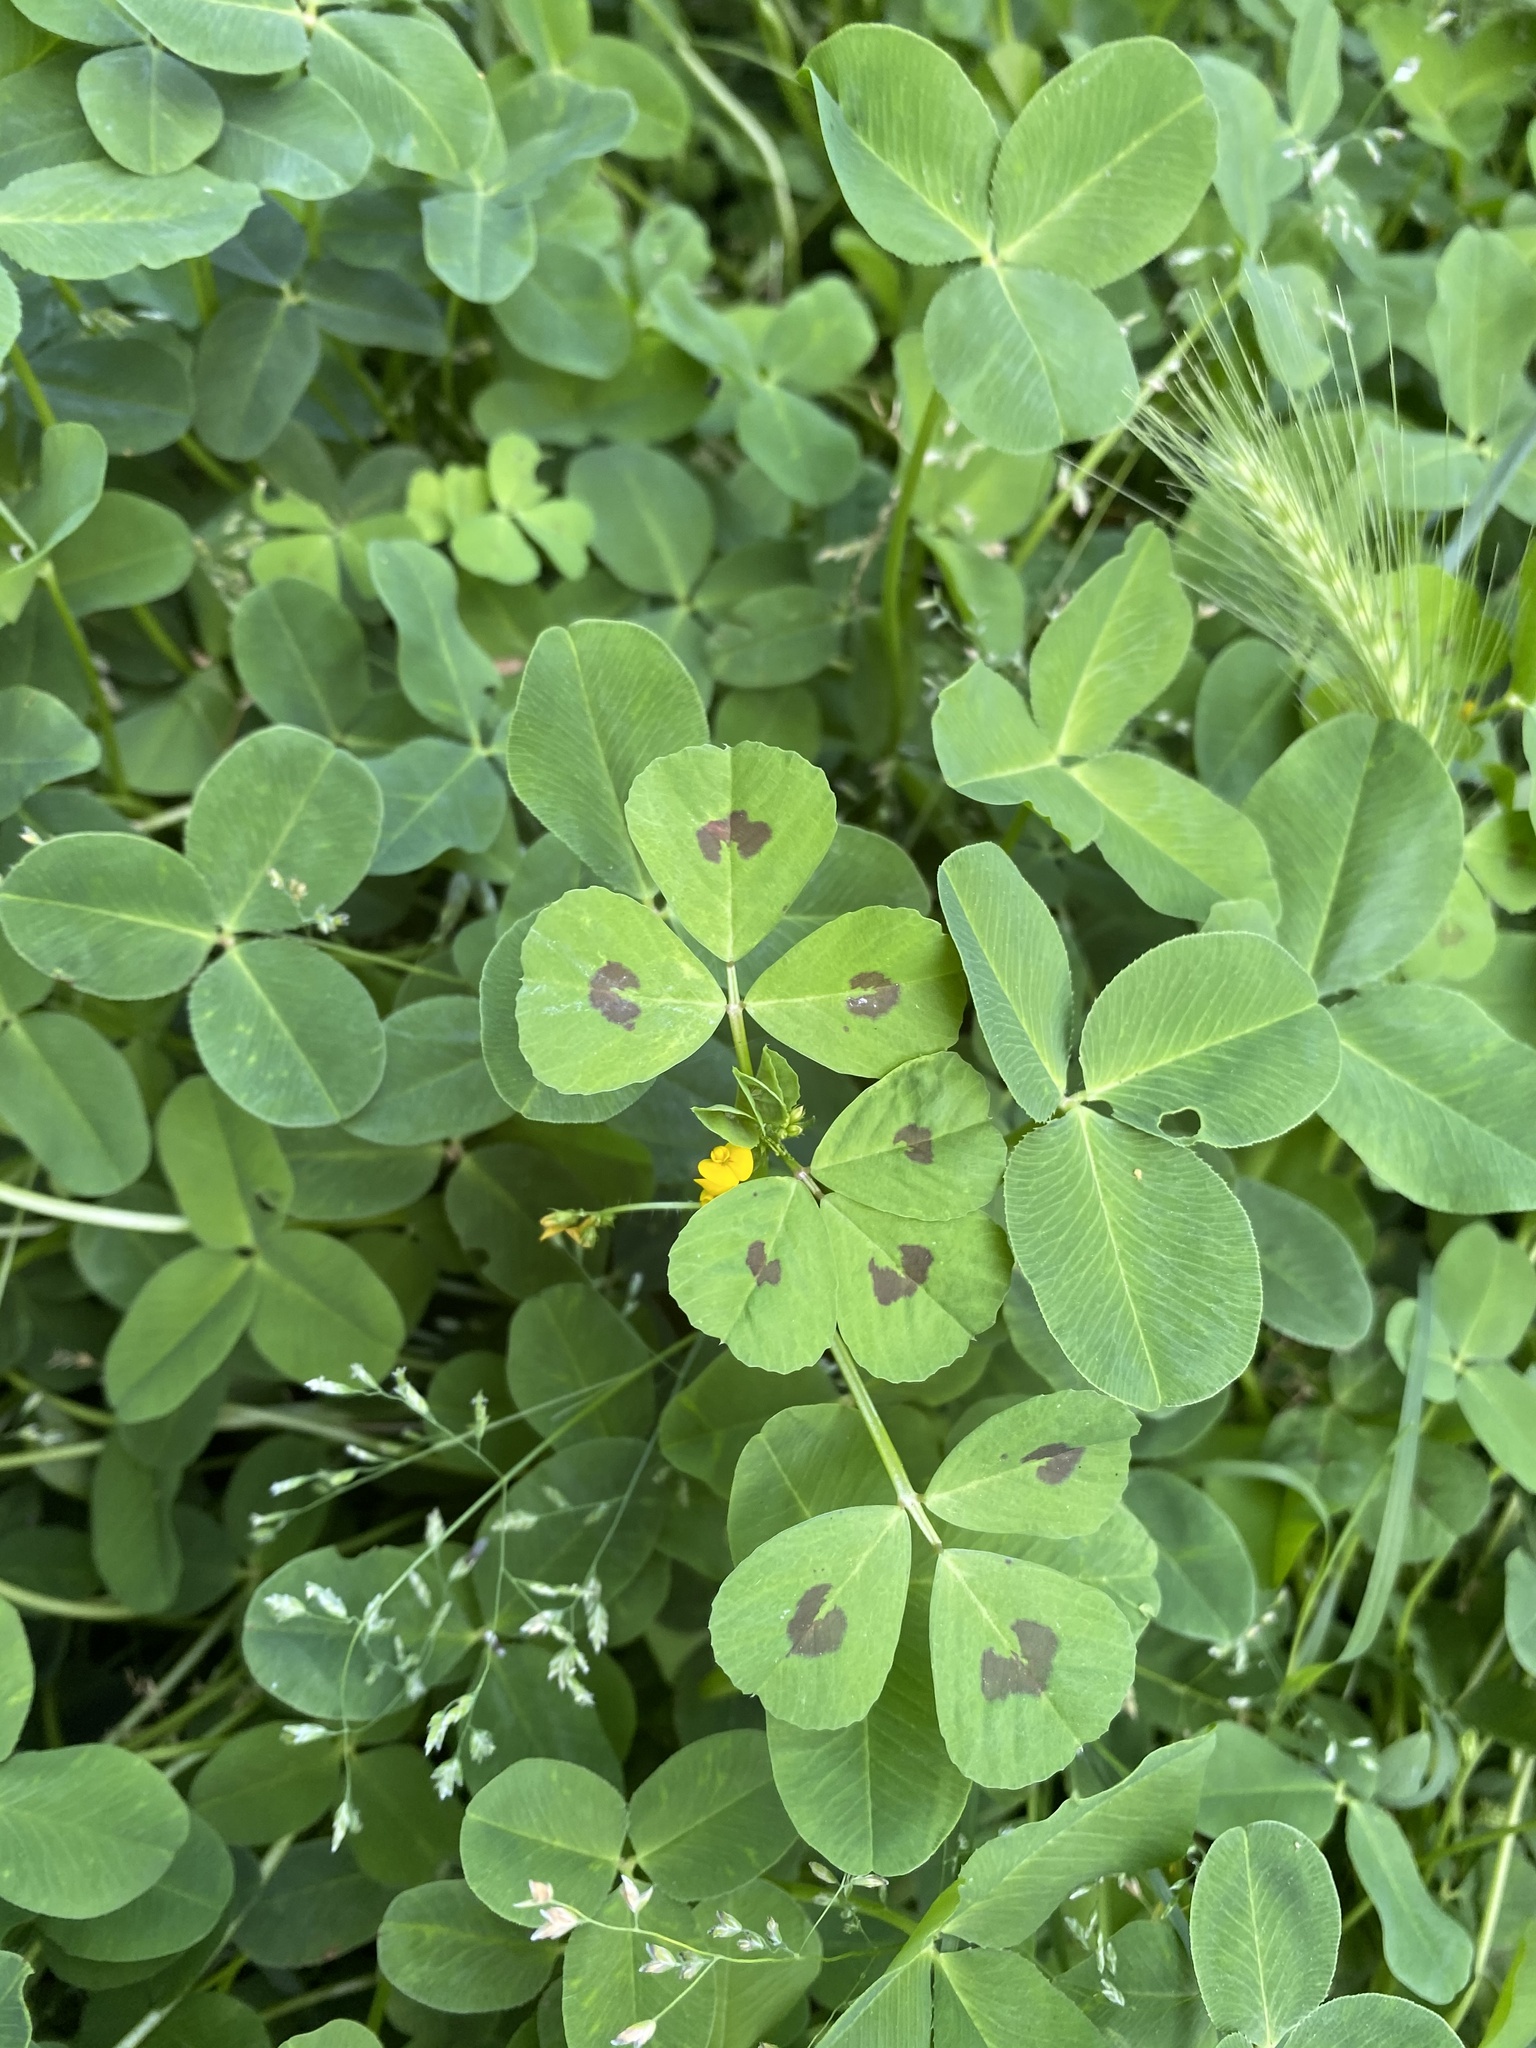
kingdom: Plantae
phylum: Tracheophyta
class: Magnoliopsida
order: Fabales
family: Fabaceae
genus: Medicago
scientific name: Medicago arabica
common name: Spotted medick
